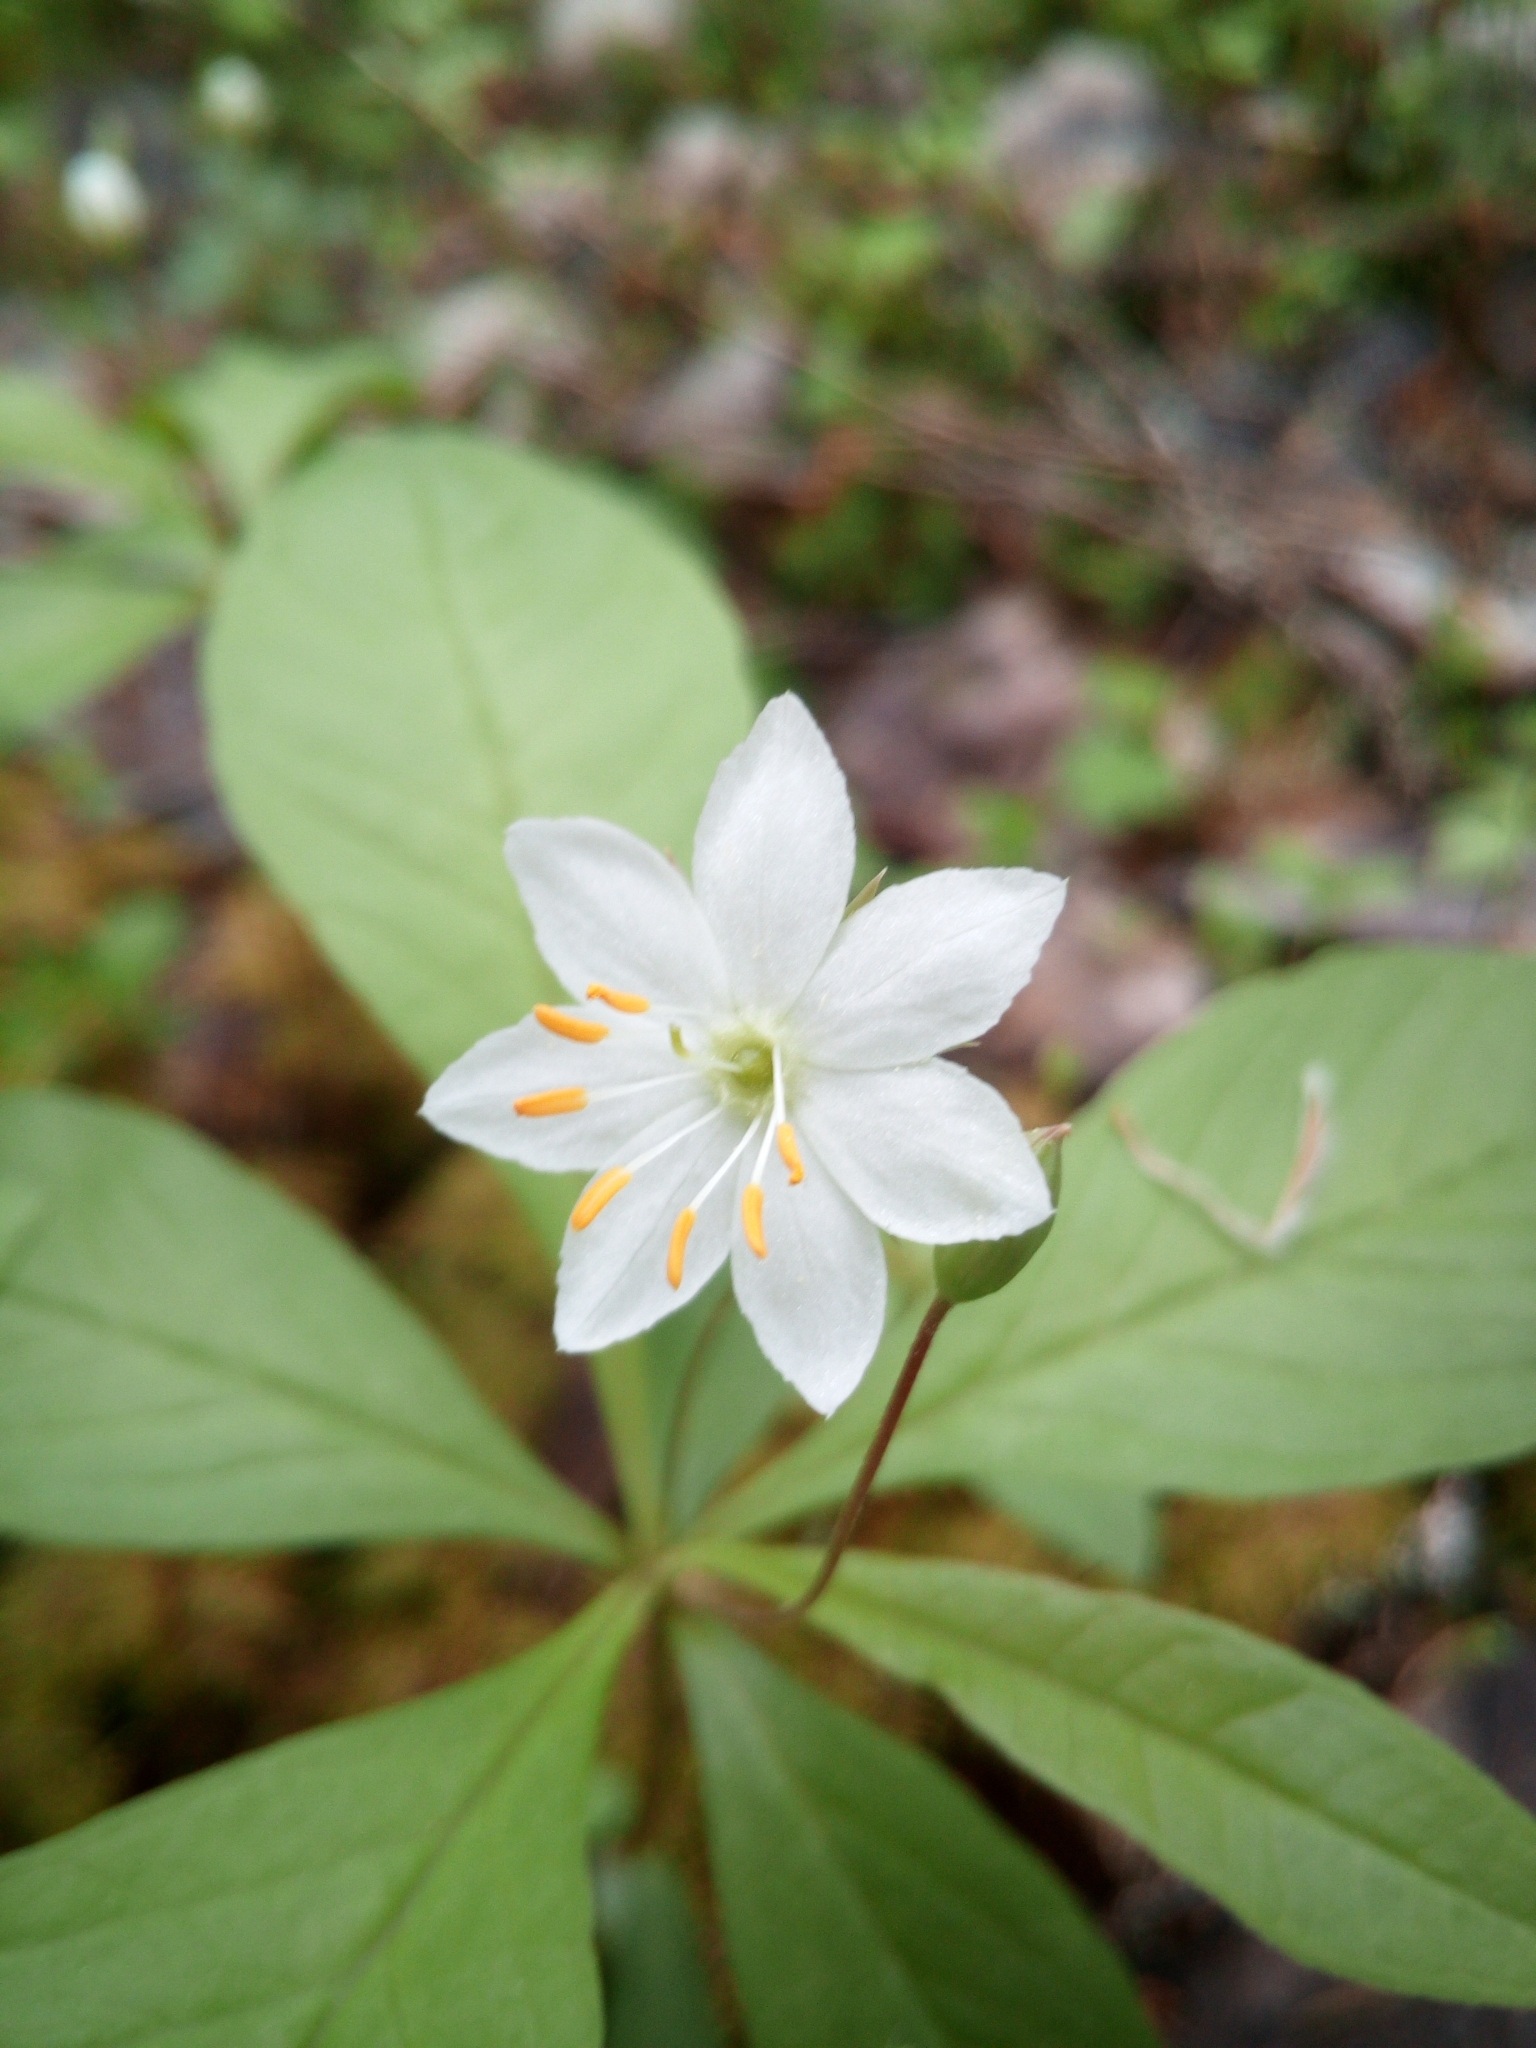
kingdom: Plantae
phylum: Tracheophyta
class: Magnoliopsida
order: Ericales
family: Primulaceae
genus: Lysimachia
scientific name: Lysimachia europaea
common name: Arctic starflower
